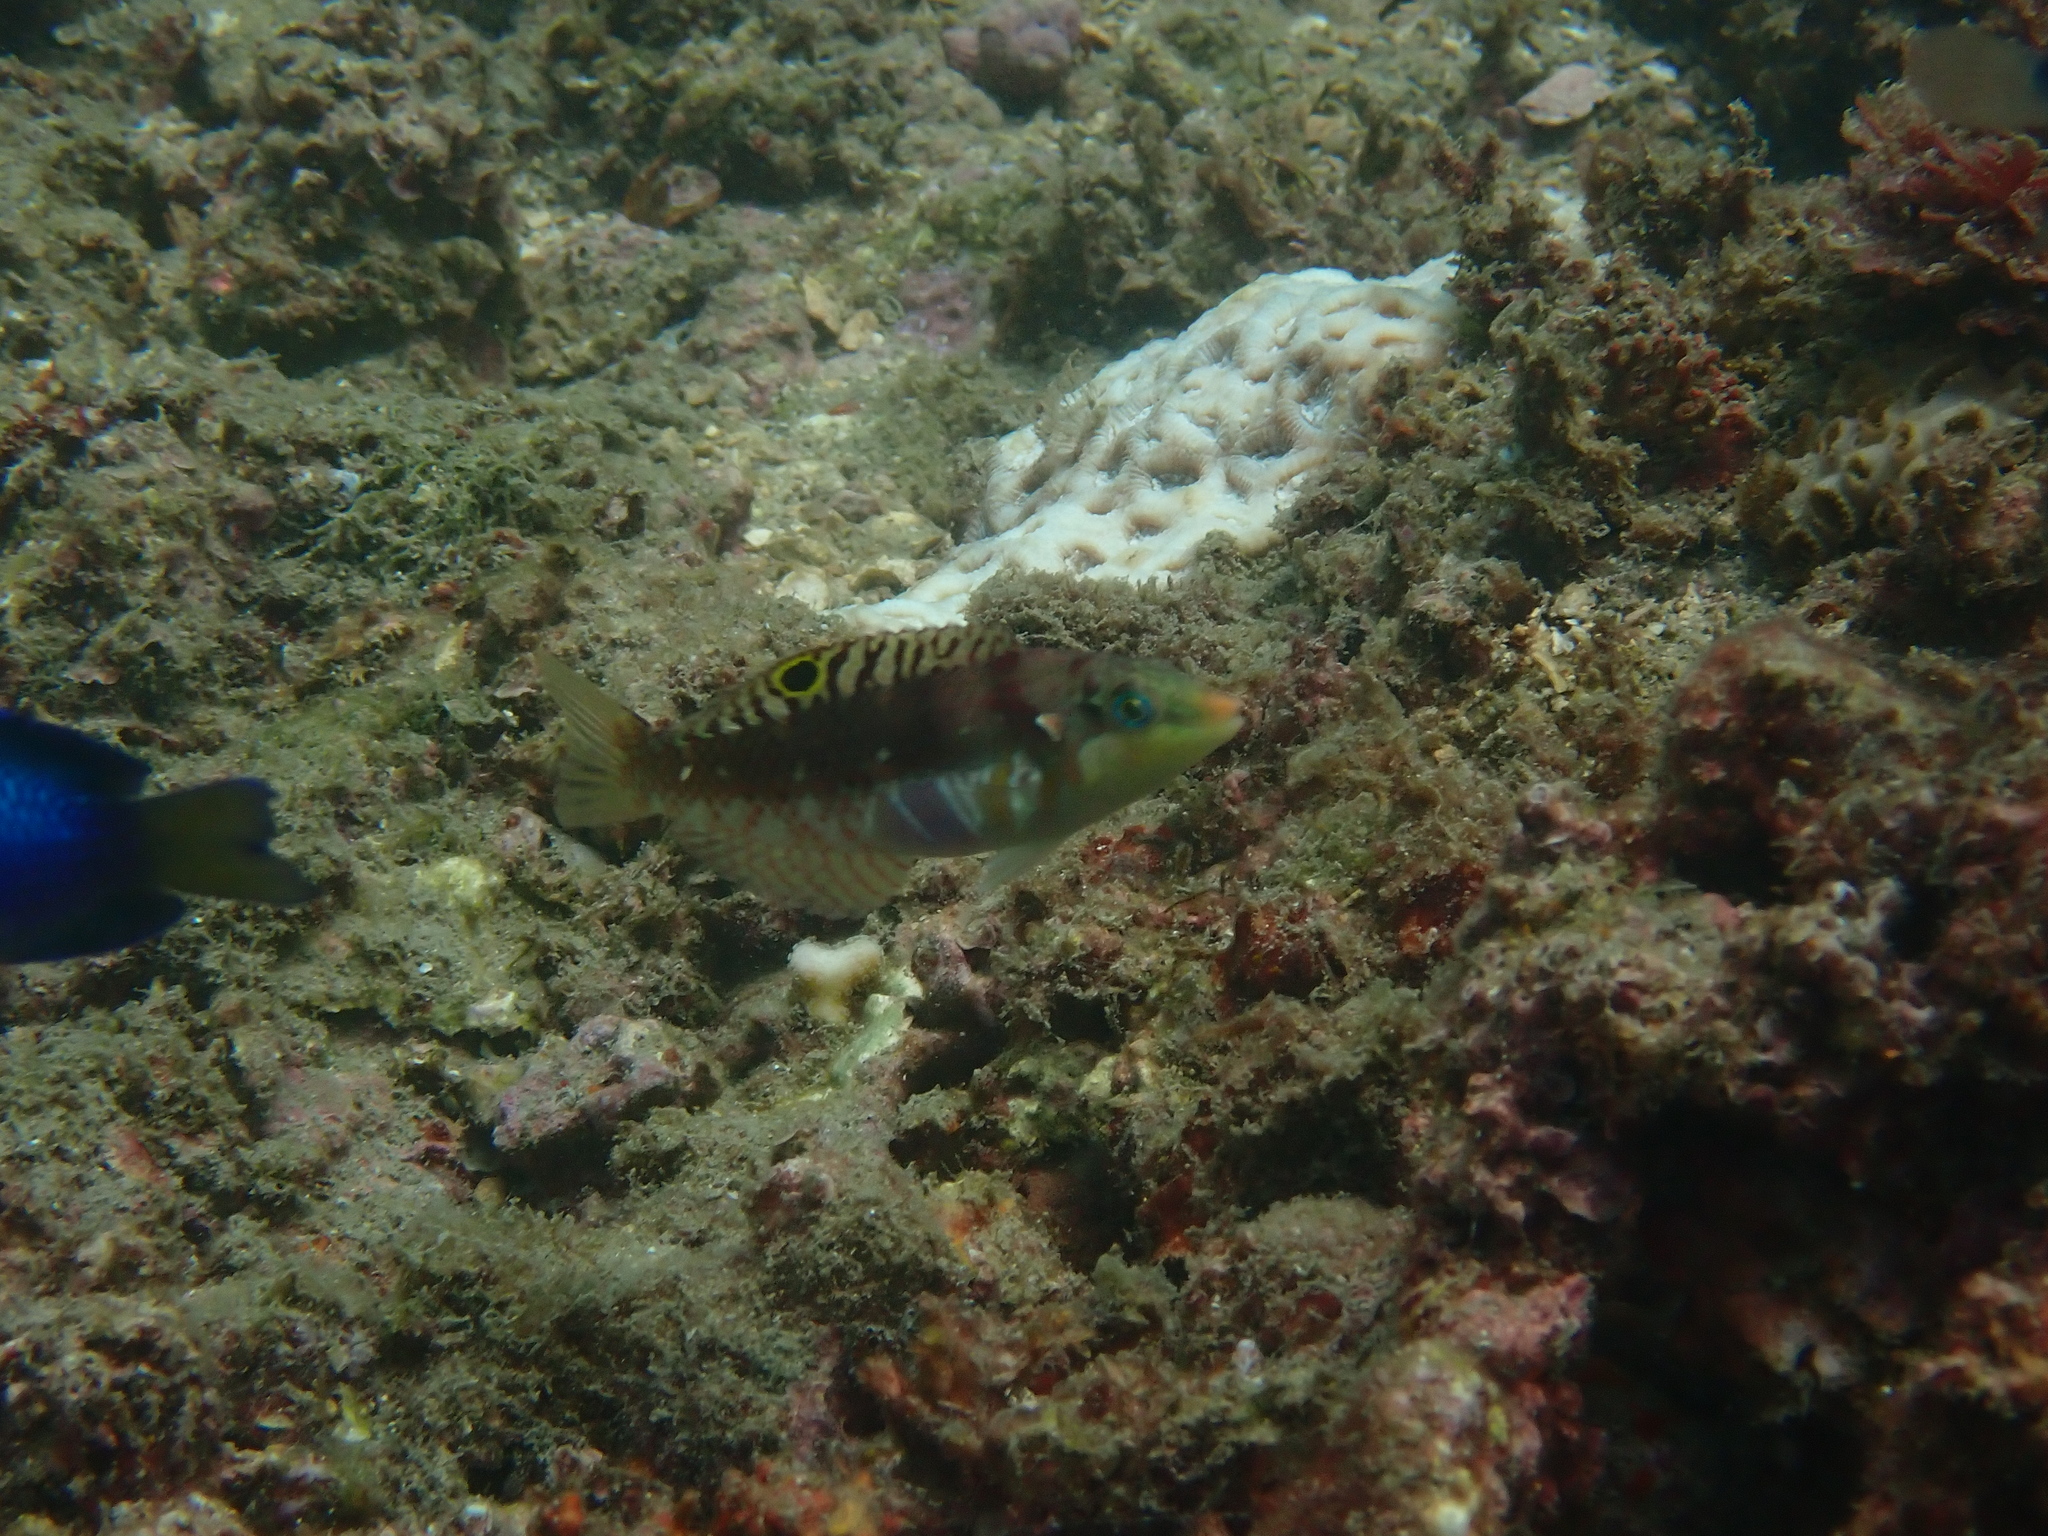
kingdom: Animalia
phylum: Chordata
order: Perciformes
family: Labridae
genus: Halichoeres
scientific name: Halichoeres nebulosus
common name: Clouded wrasse
